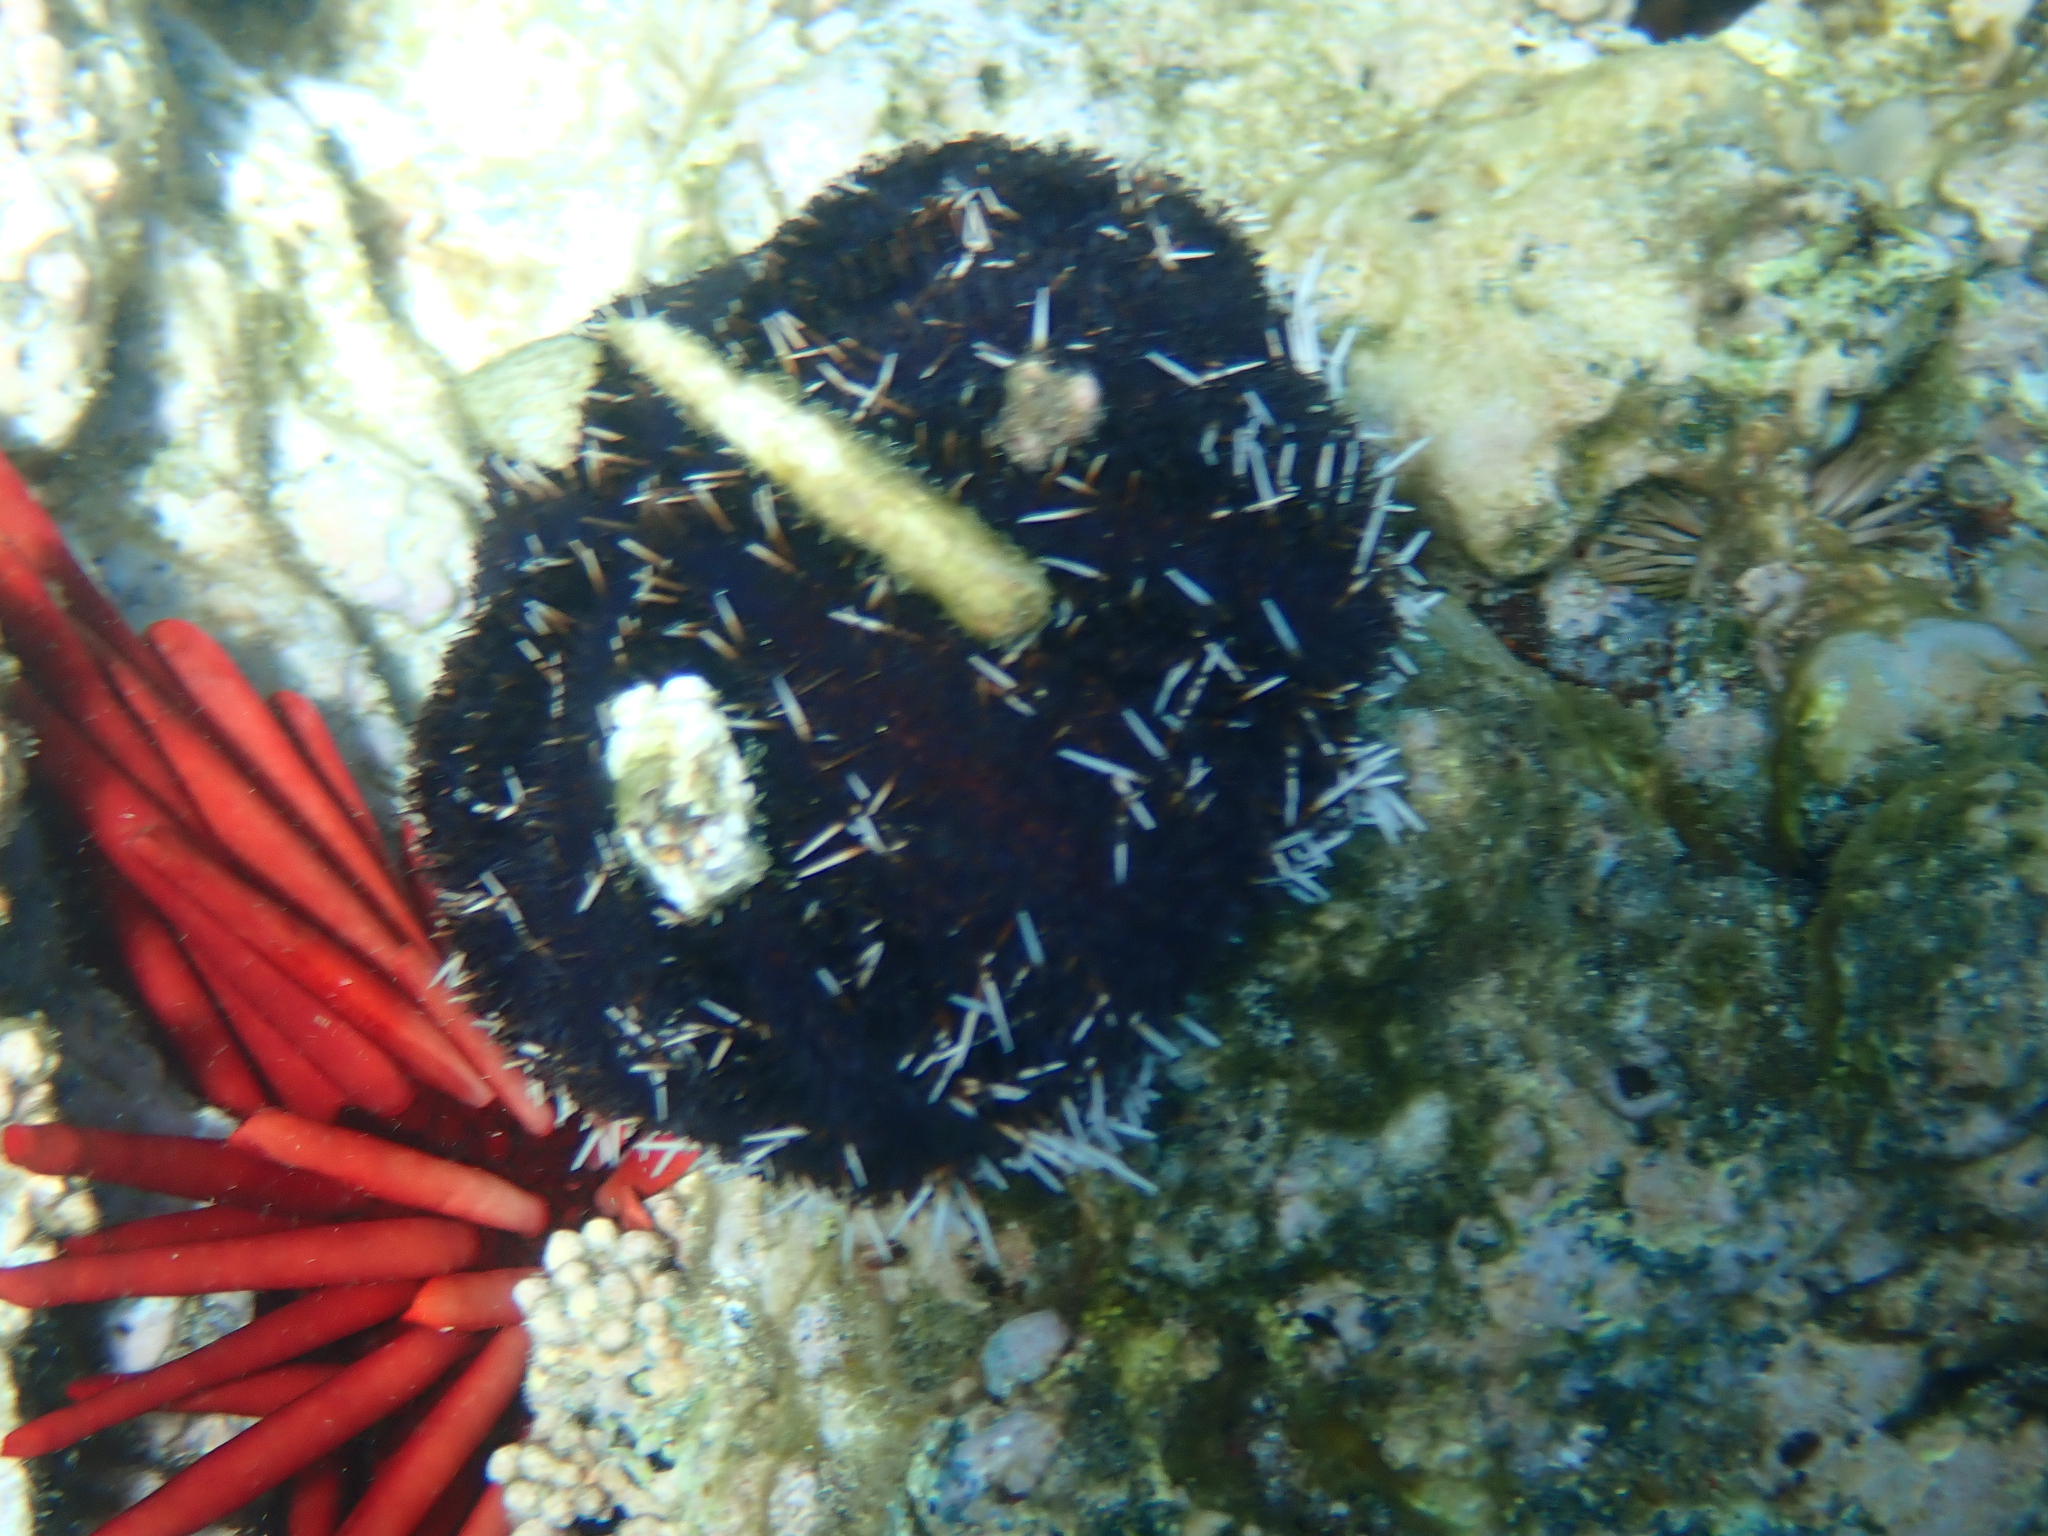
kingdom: Animalia
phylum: Echinodermata
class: Echinoidea
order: Camarodonta
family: Toxopneustidae
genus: Tripneustes
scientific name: Tripneustes gratilla
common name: Bischofsmützenseeigel
